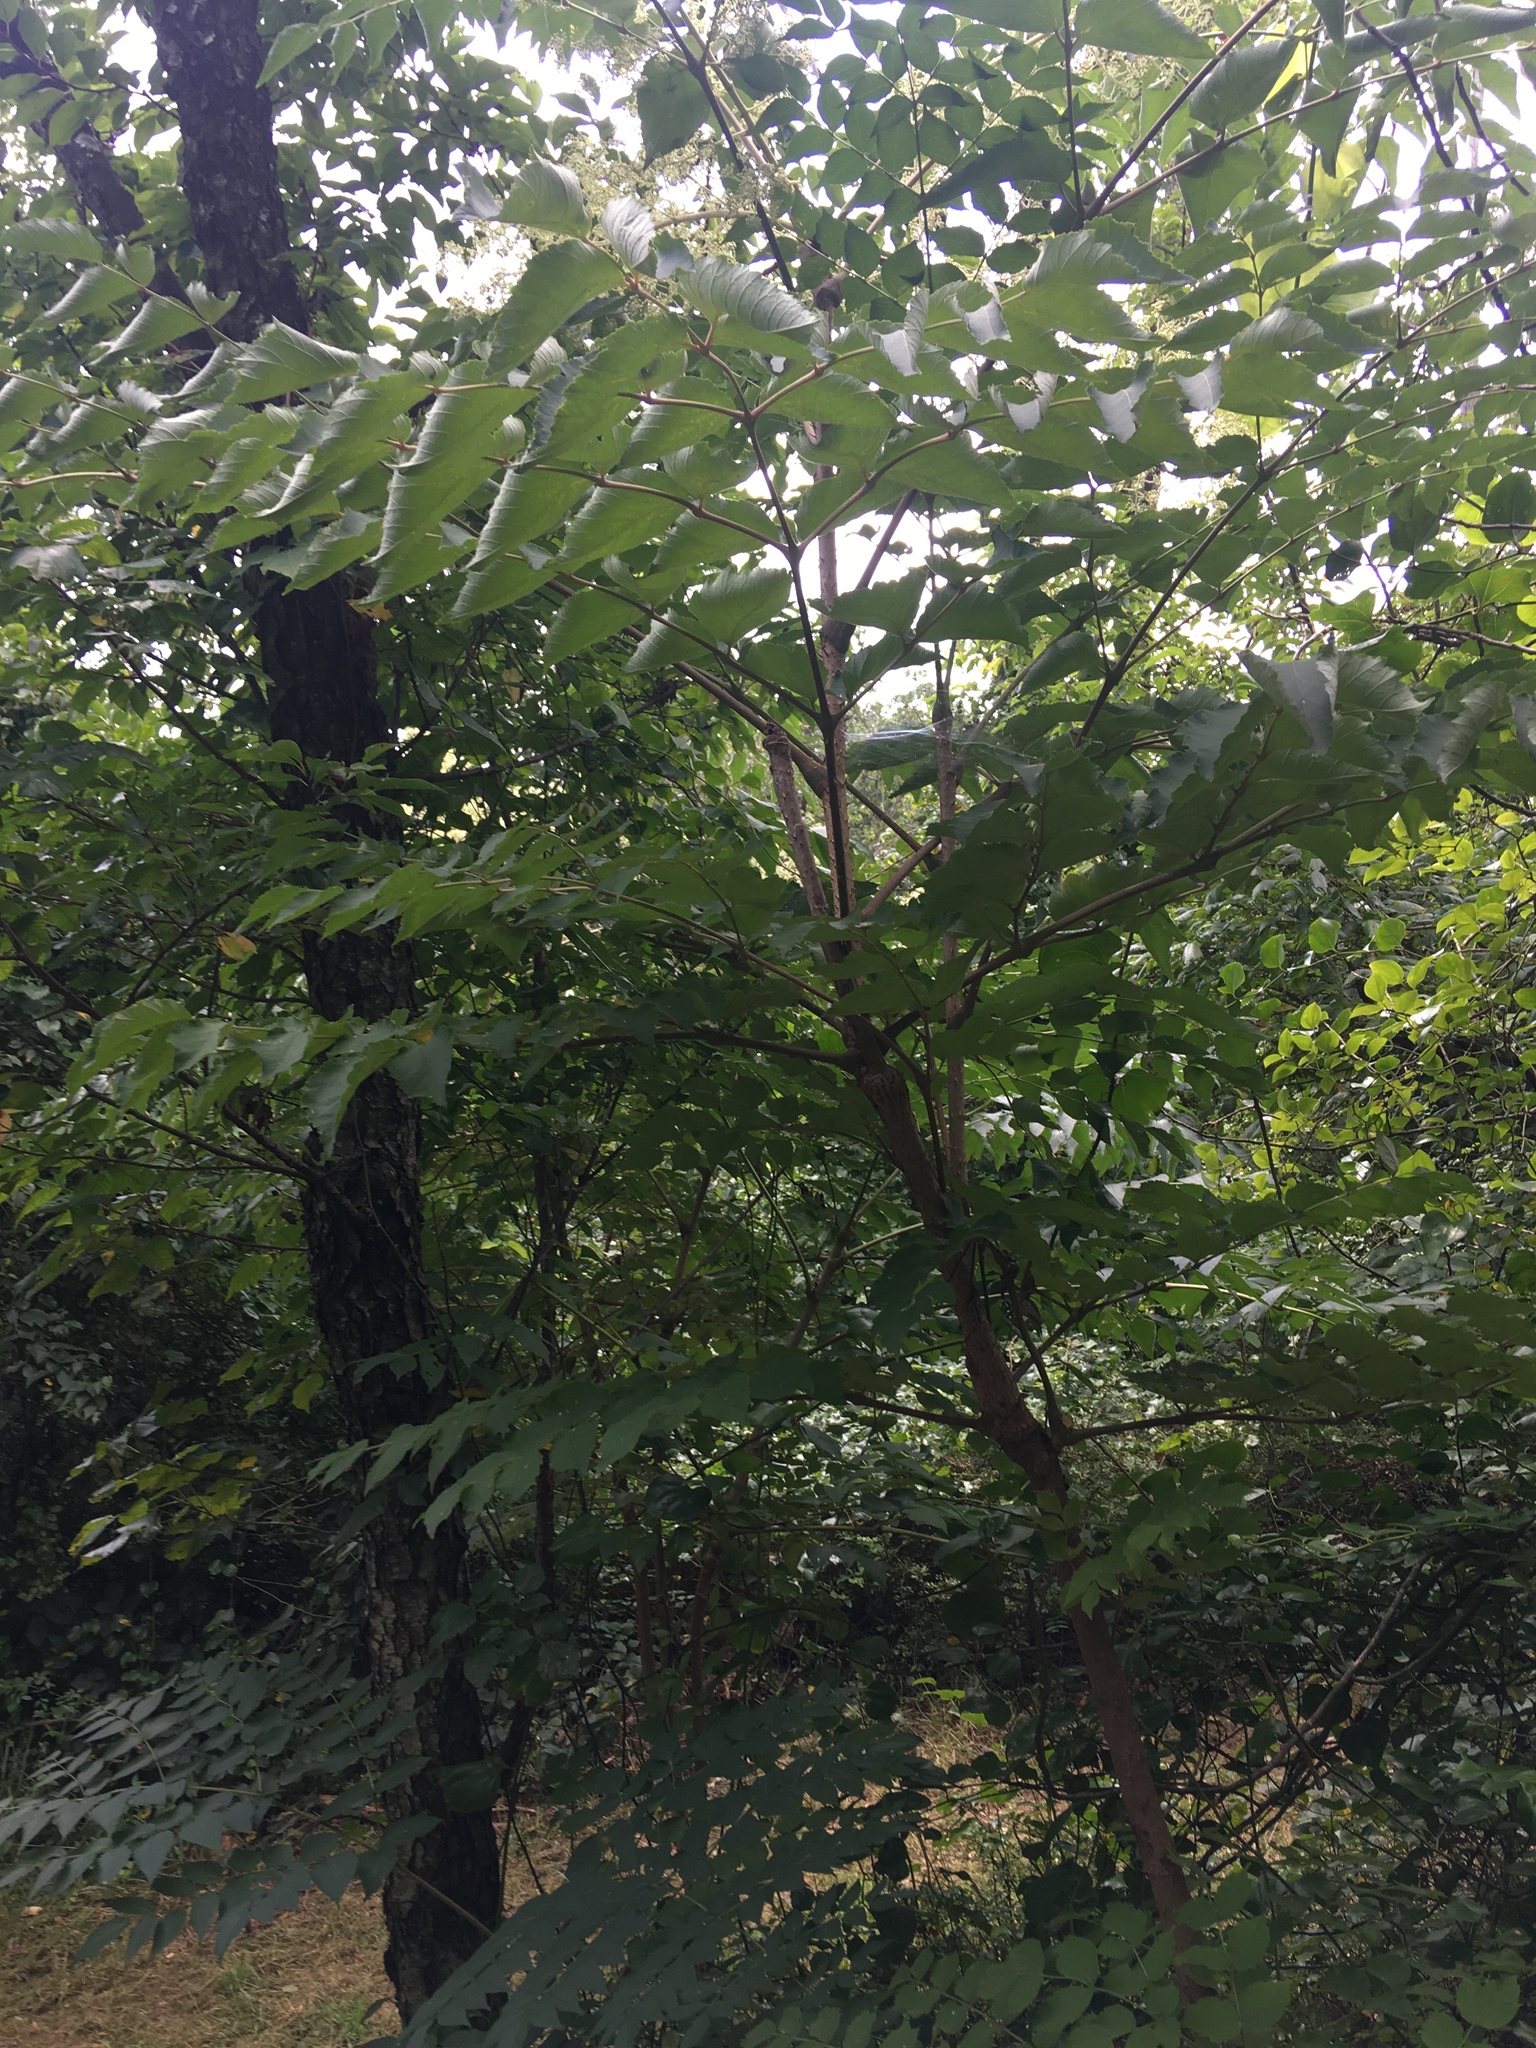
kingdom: Plantae
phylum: Tracheophyta
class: Magnoliopsida
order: Apiales
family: Araliaceae
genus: Aralia
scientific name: Aralia elata
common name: Japanese angelica-tree
